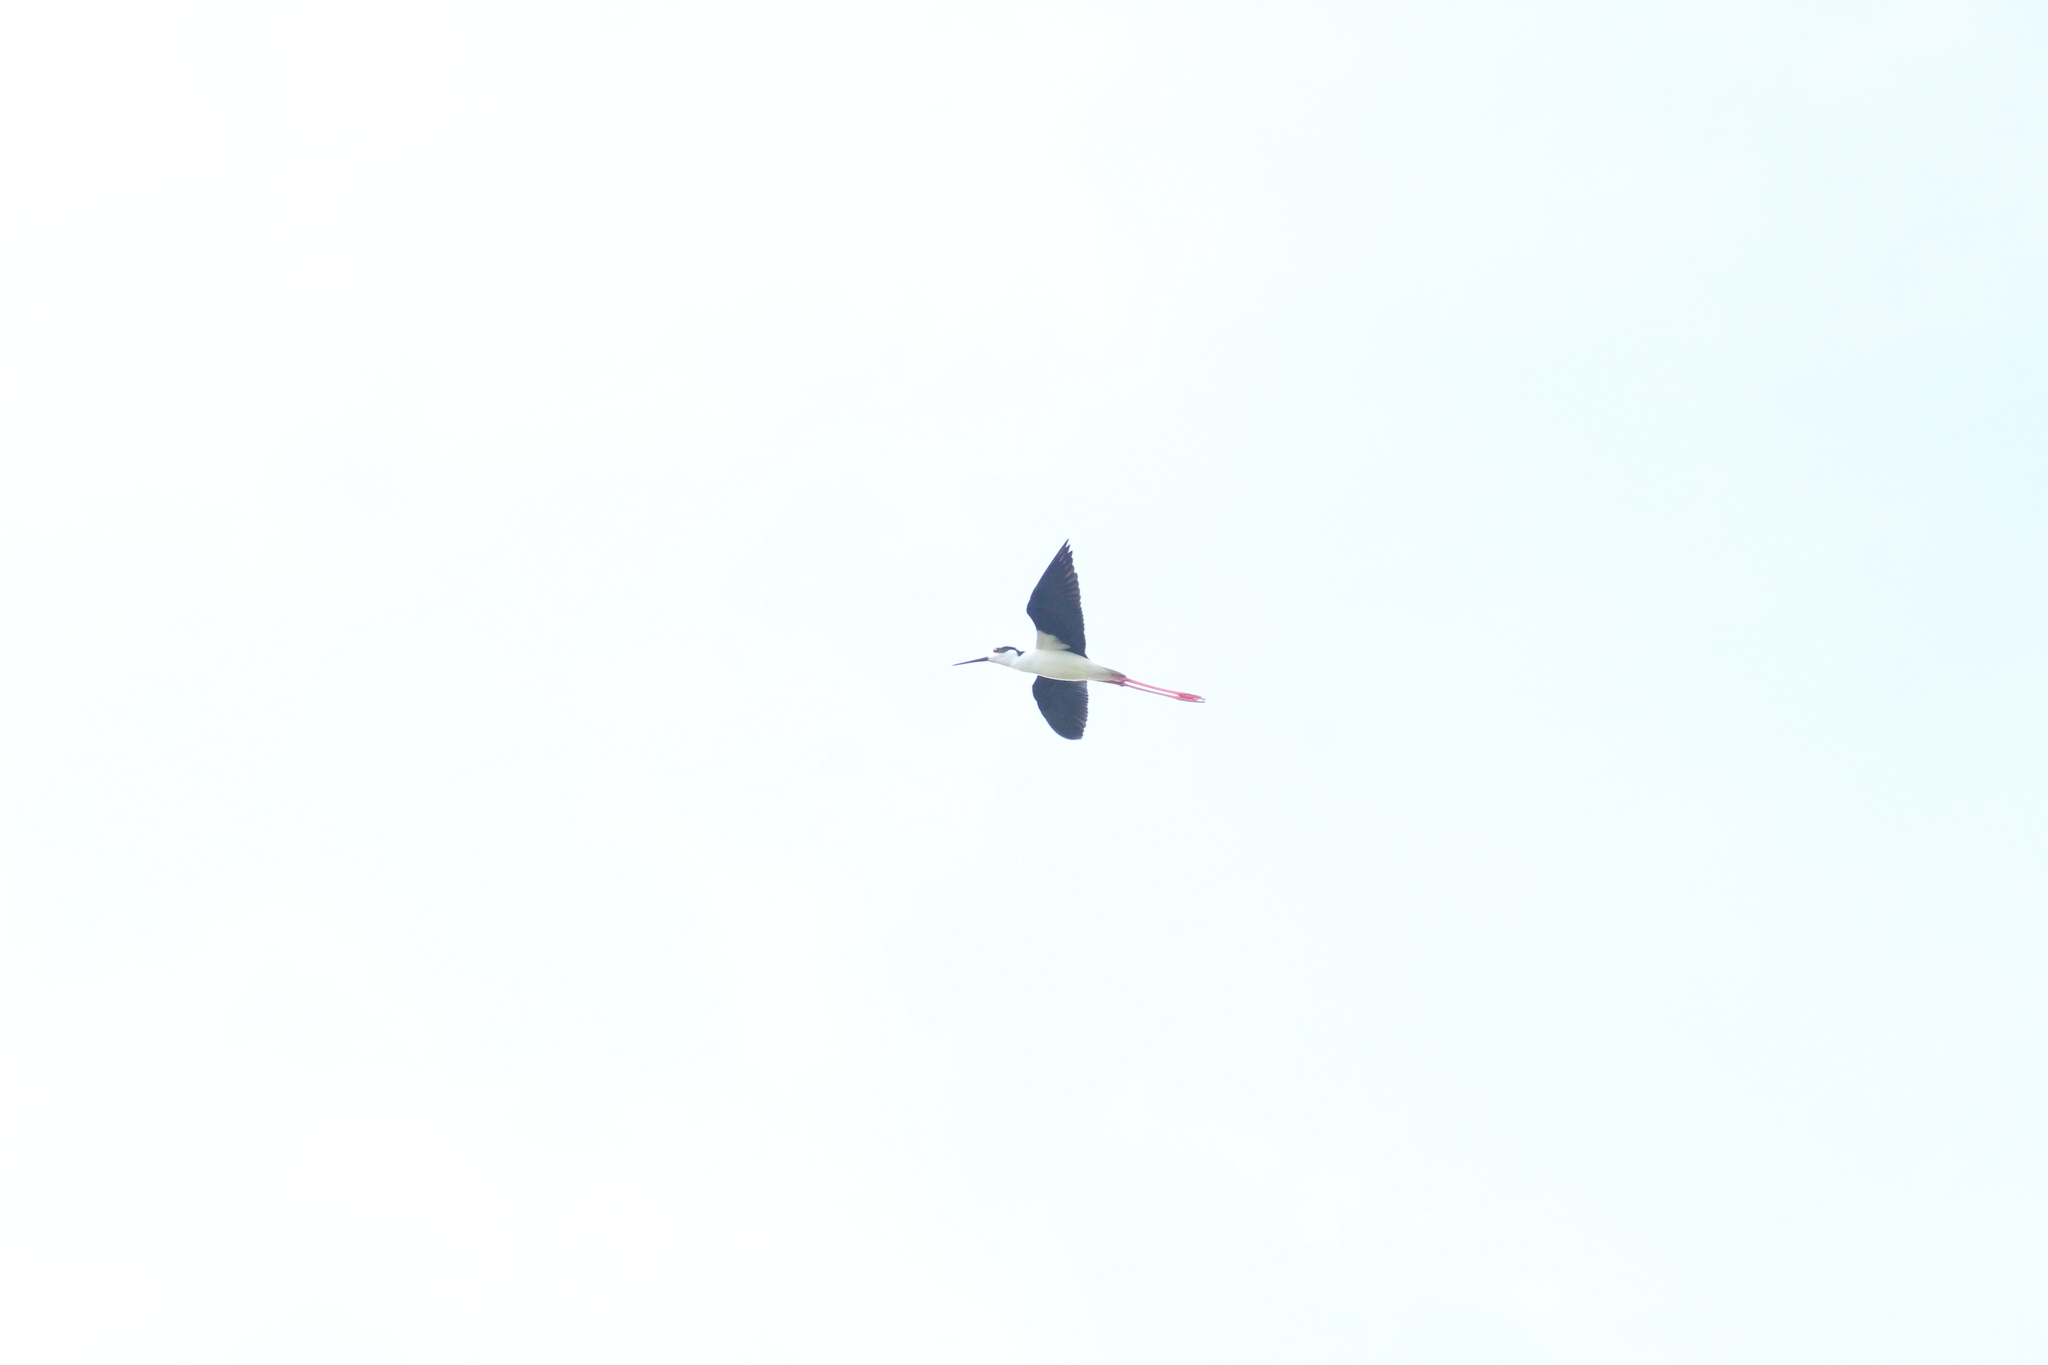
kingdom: Animalia
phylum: Chordata
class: Aves
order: Charadriiformes
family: Recurvirostridae
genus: Himantopus
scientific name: Himantopus mexicanus
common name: Black-necked stilt
